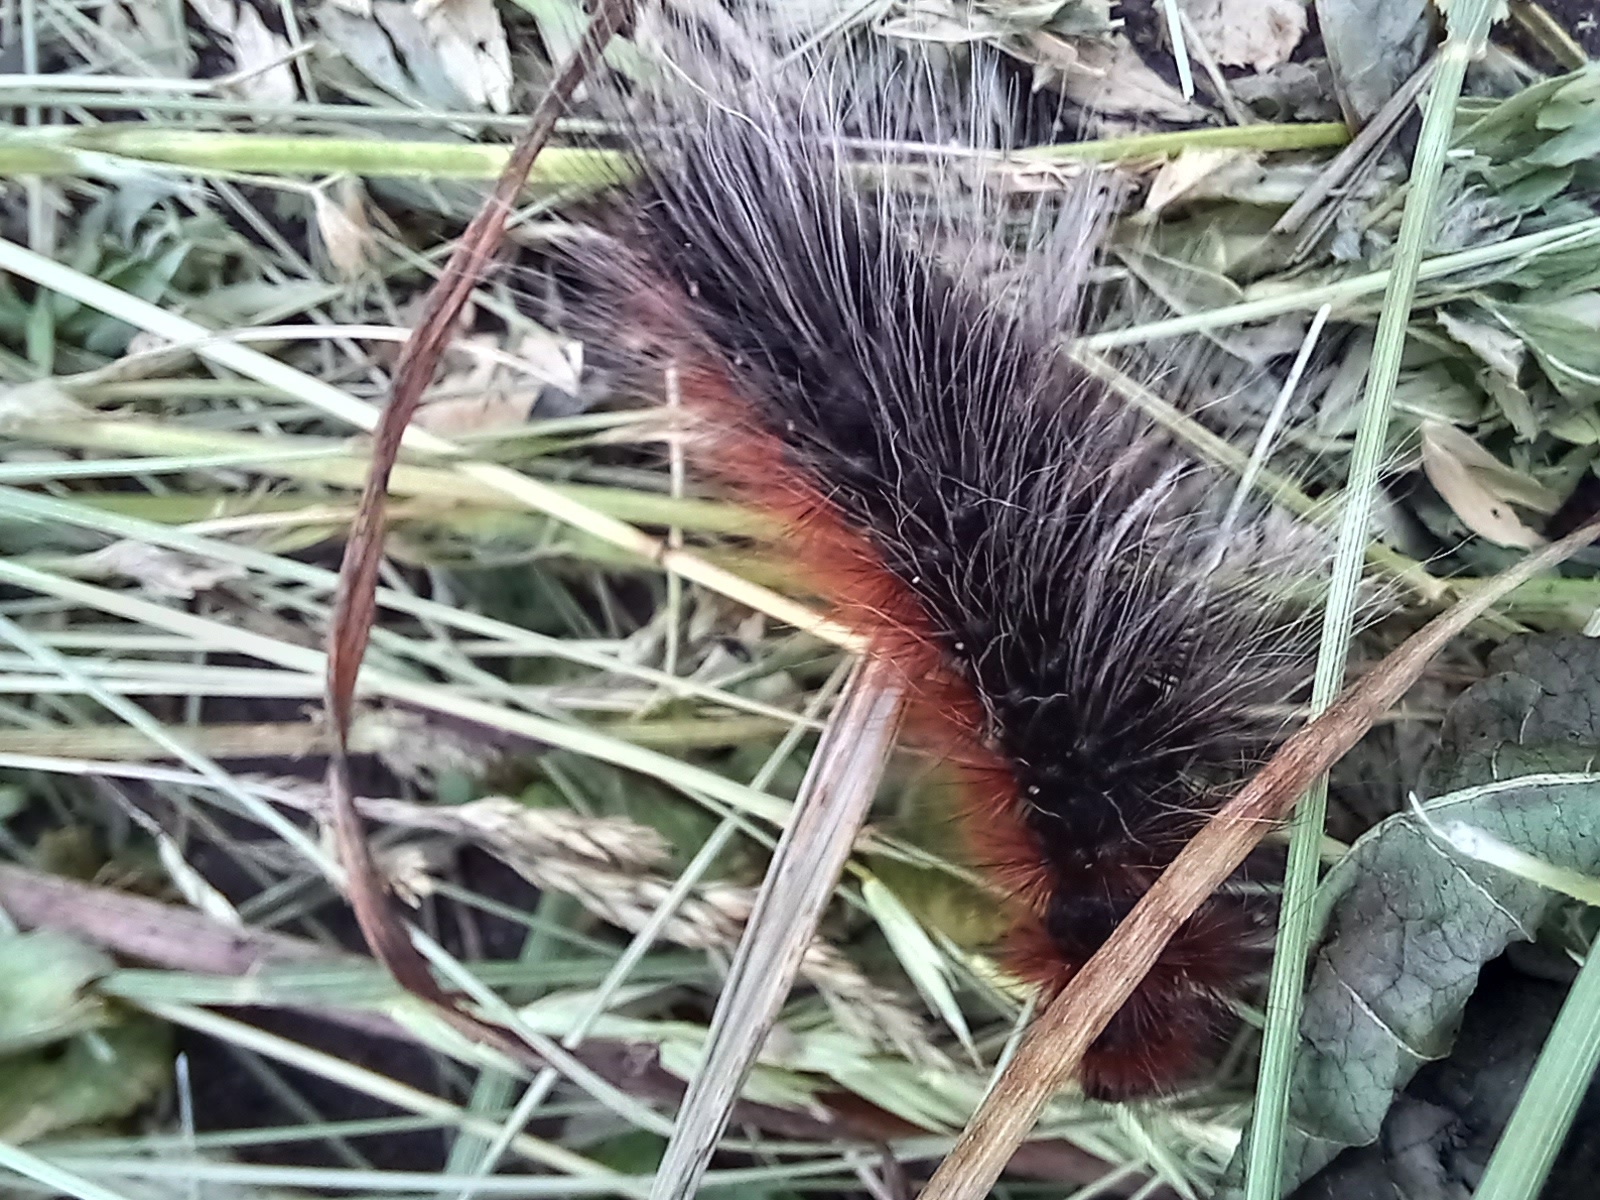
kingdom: Animalia
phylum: Arthropoda
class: Insecta
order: Lepidoptera
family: Erebidae
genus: Arctia
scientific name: Arctia caja
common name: Garden tiger
